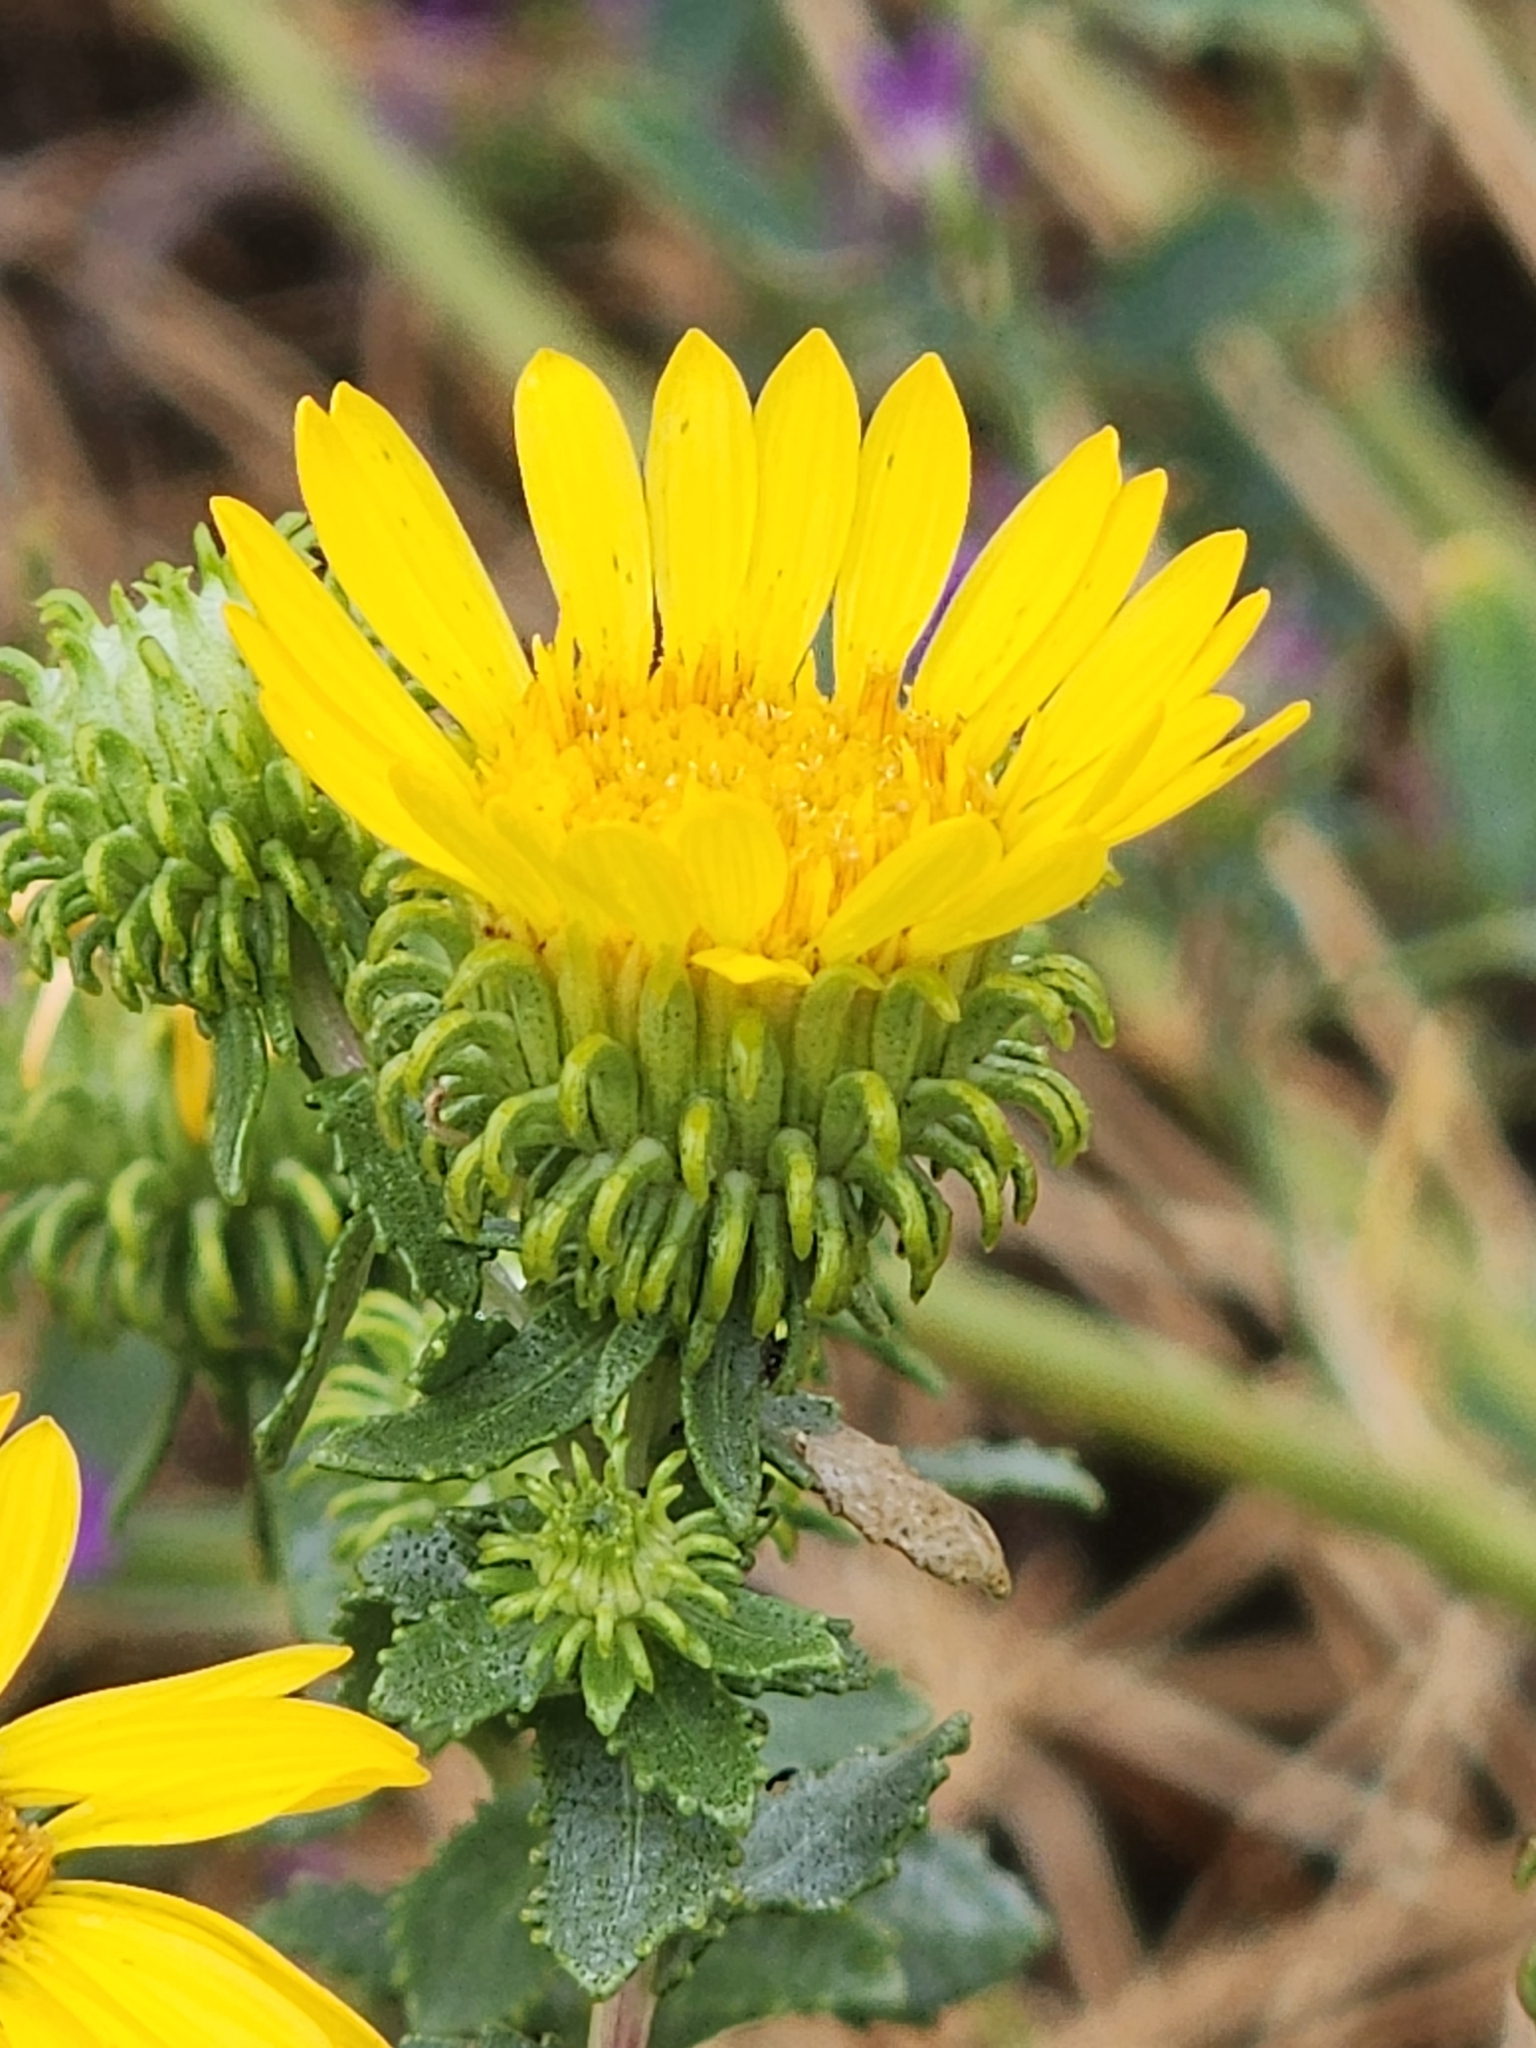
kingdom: Plantae
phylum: Tracheophyta
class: Magnoliopsida
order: Asterales
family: Asteraceae
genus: Grindelia
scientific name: Grindelia squarrosa
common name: Curly-cup gumweed
